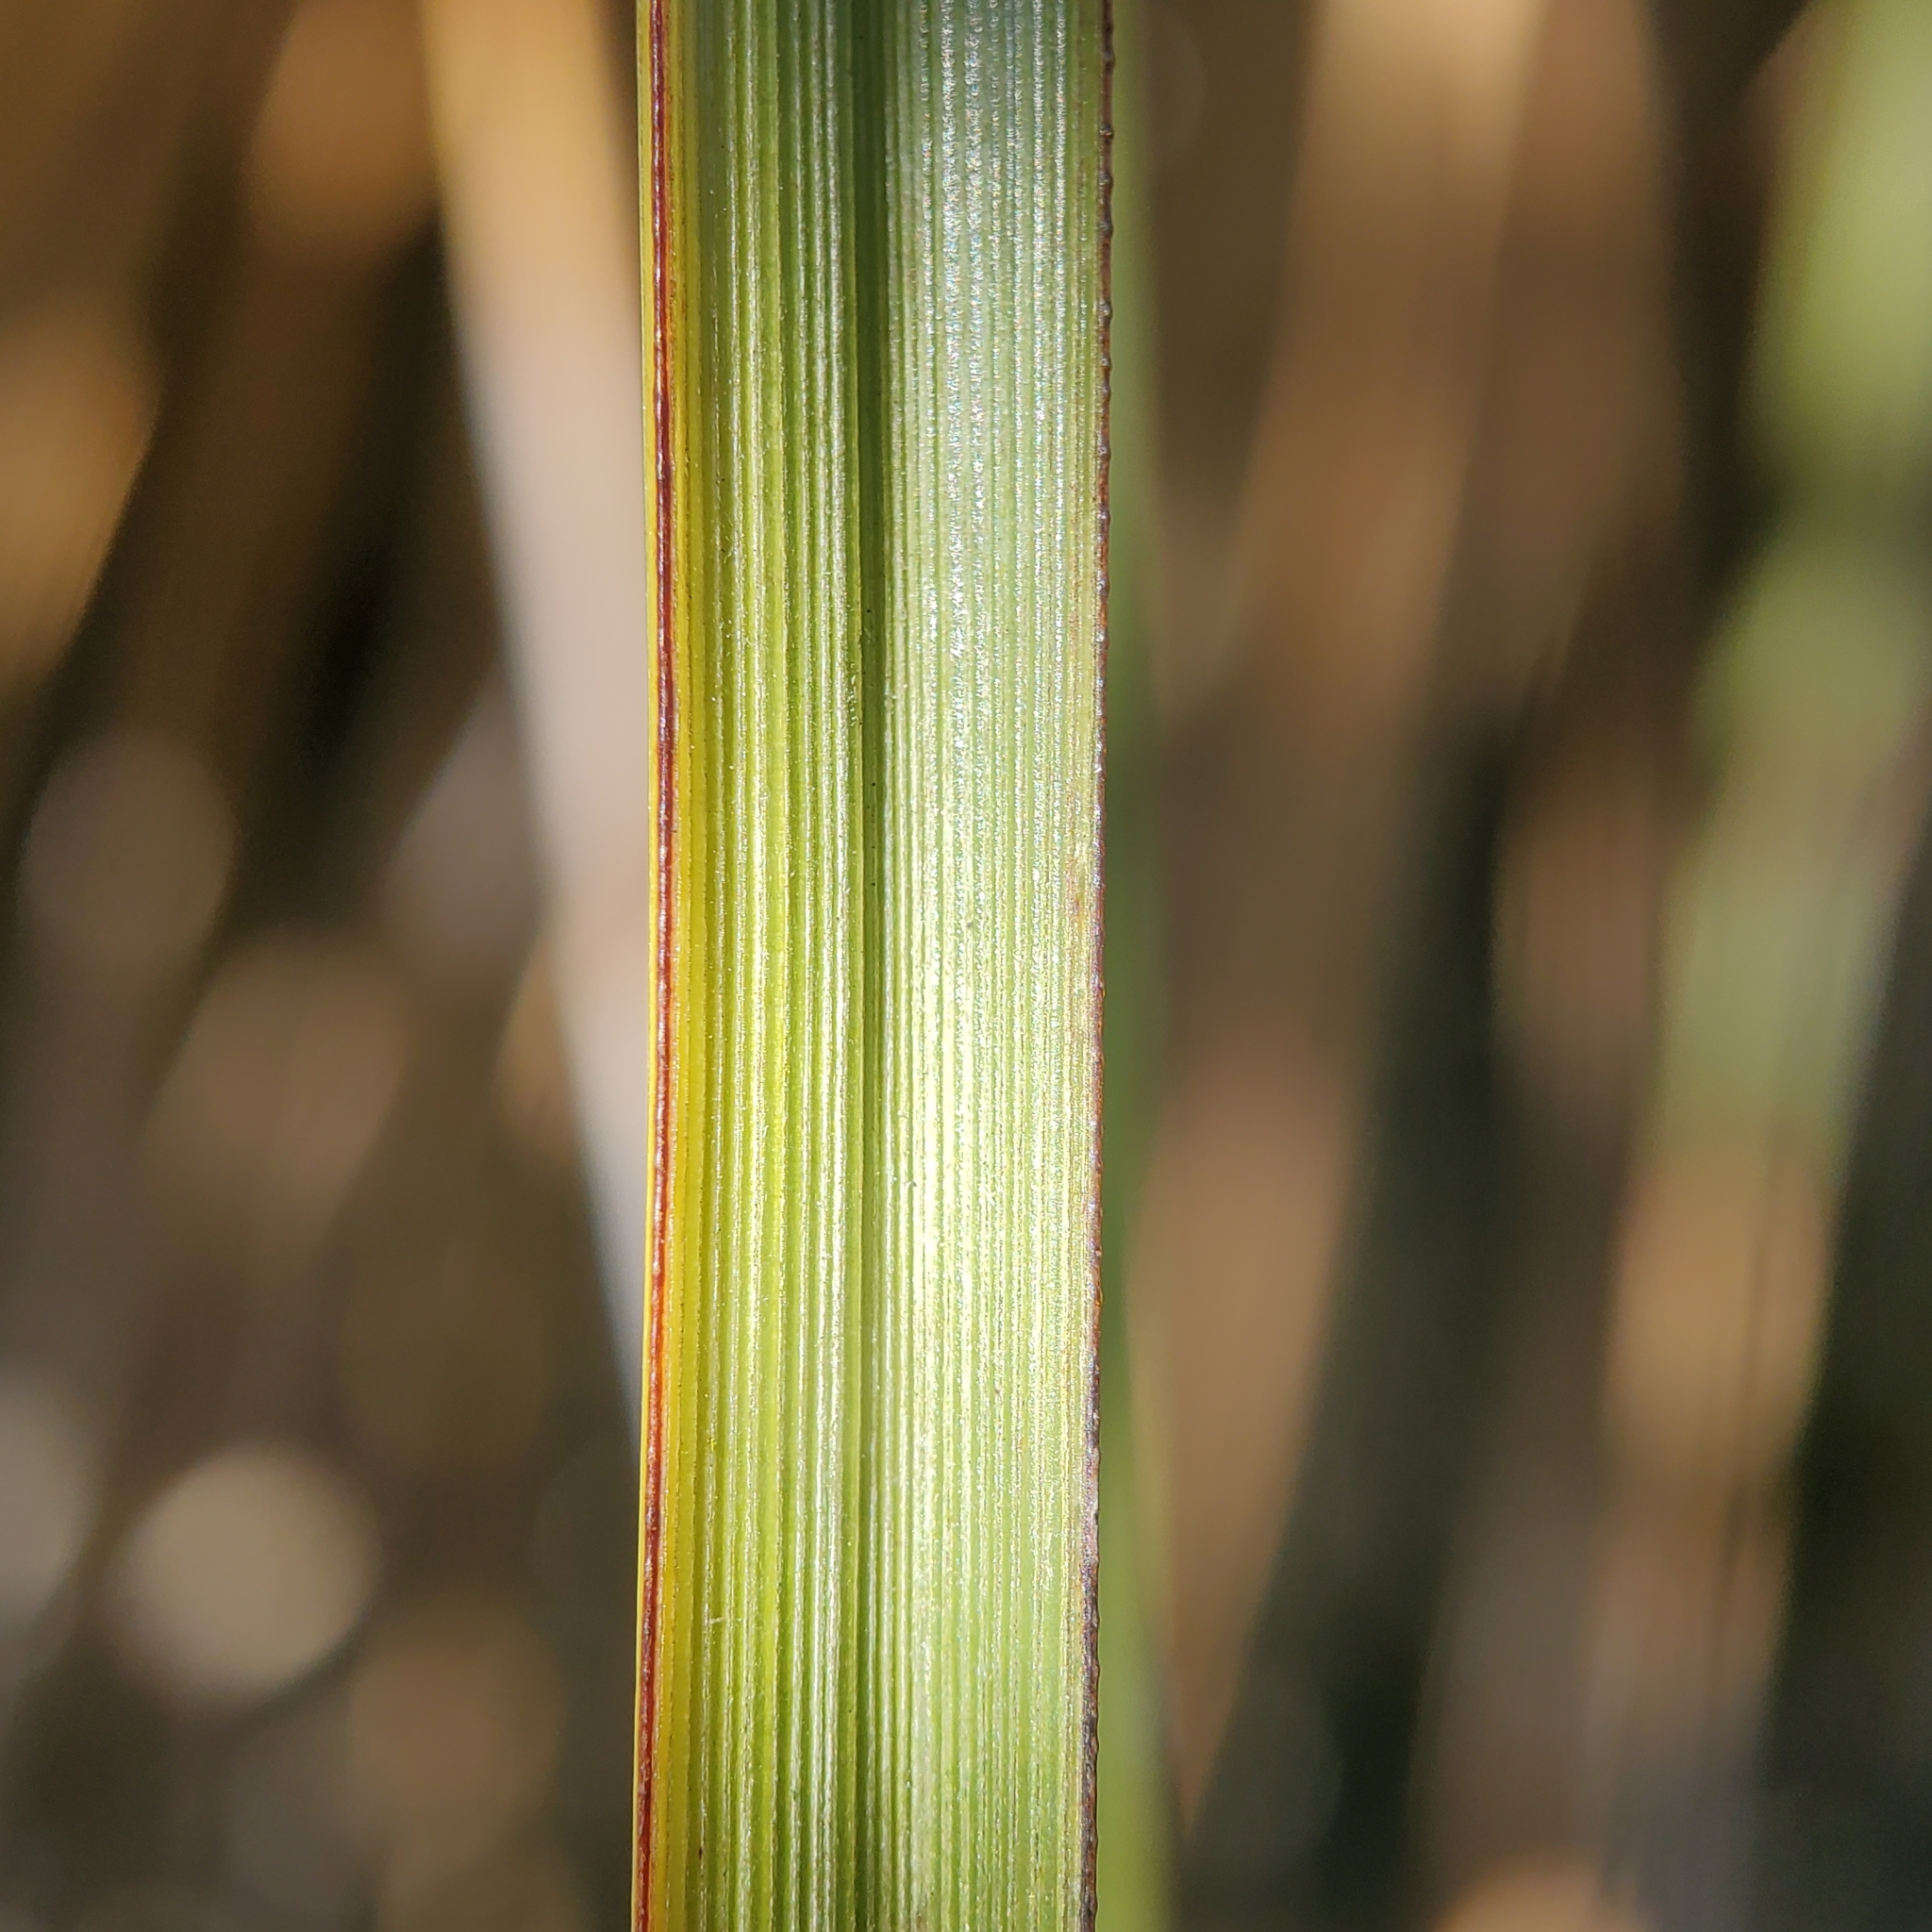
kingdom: Plantae
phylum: Tracheophyta
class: Liliopsida
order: Asparagales
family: Asparagaceae
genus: Nolina
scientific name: Nolina cismontana
